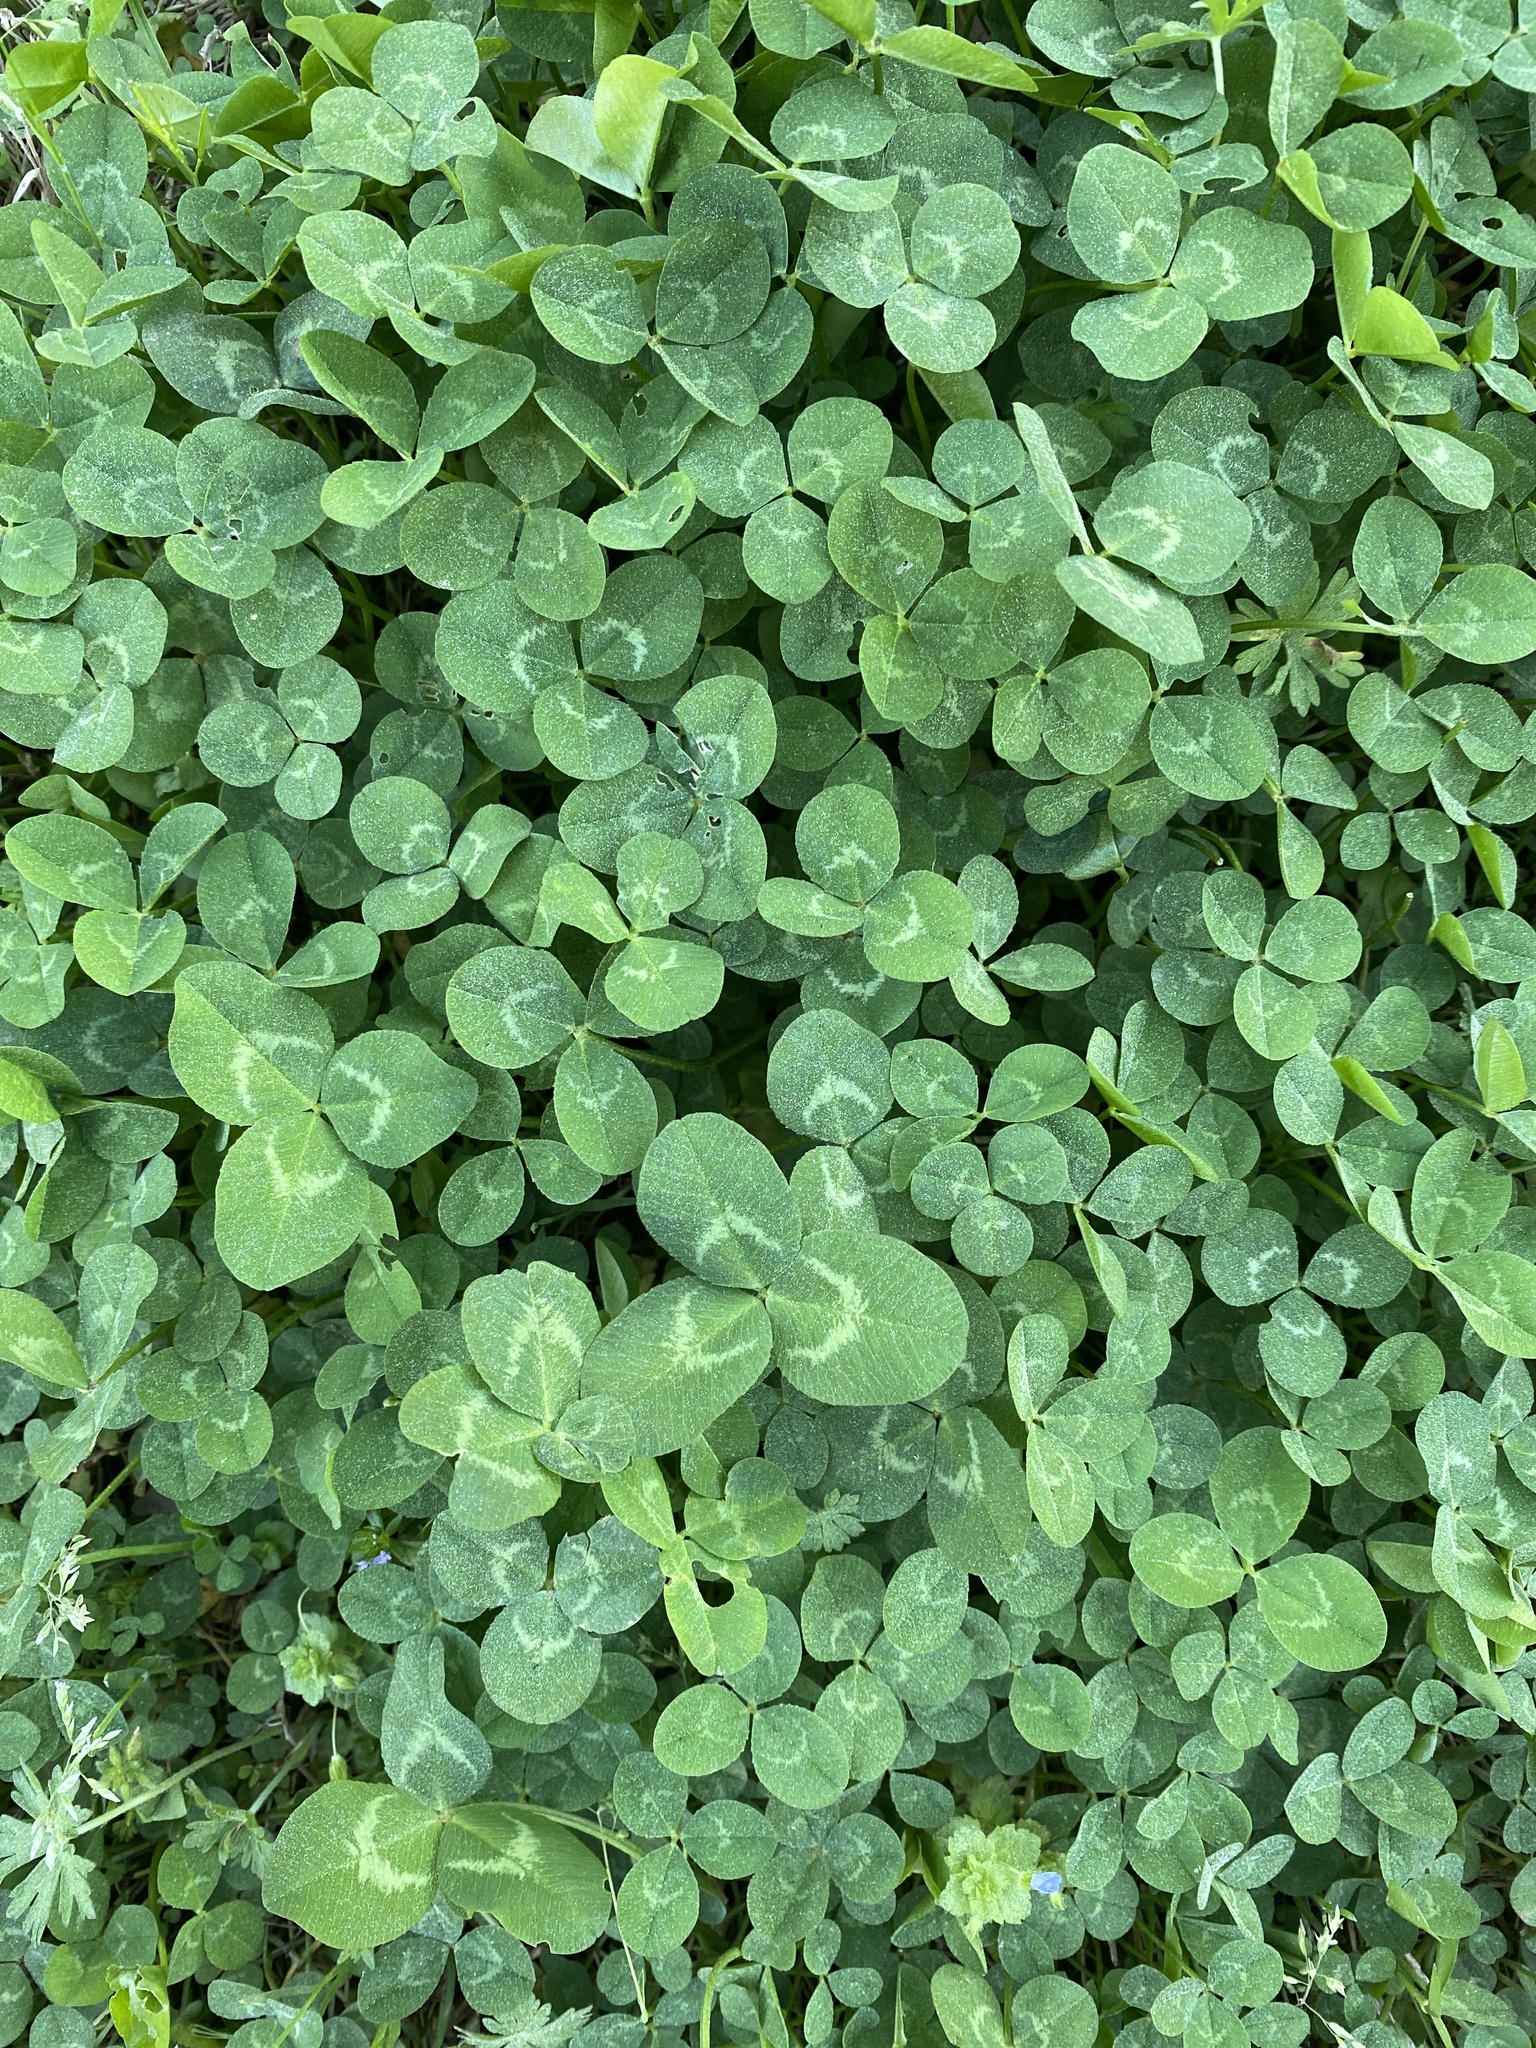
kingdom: Plantae
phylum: Tracheophyta
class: Magnoliopsida
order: Fabales
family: Fabaceae
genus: Trifolium
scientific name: Trifolium repens
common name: White clover
